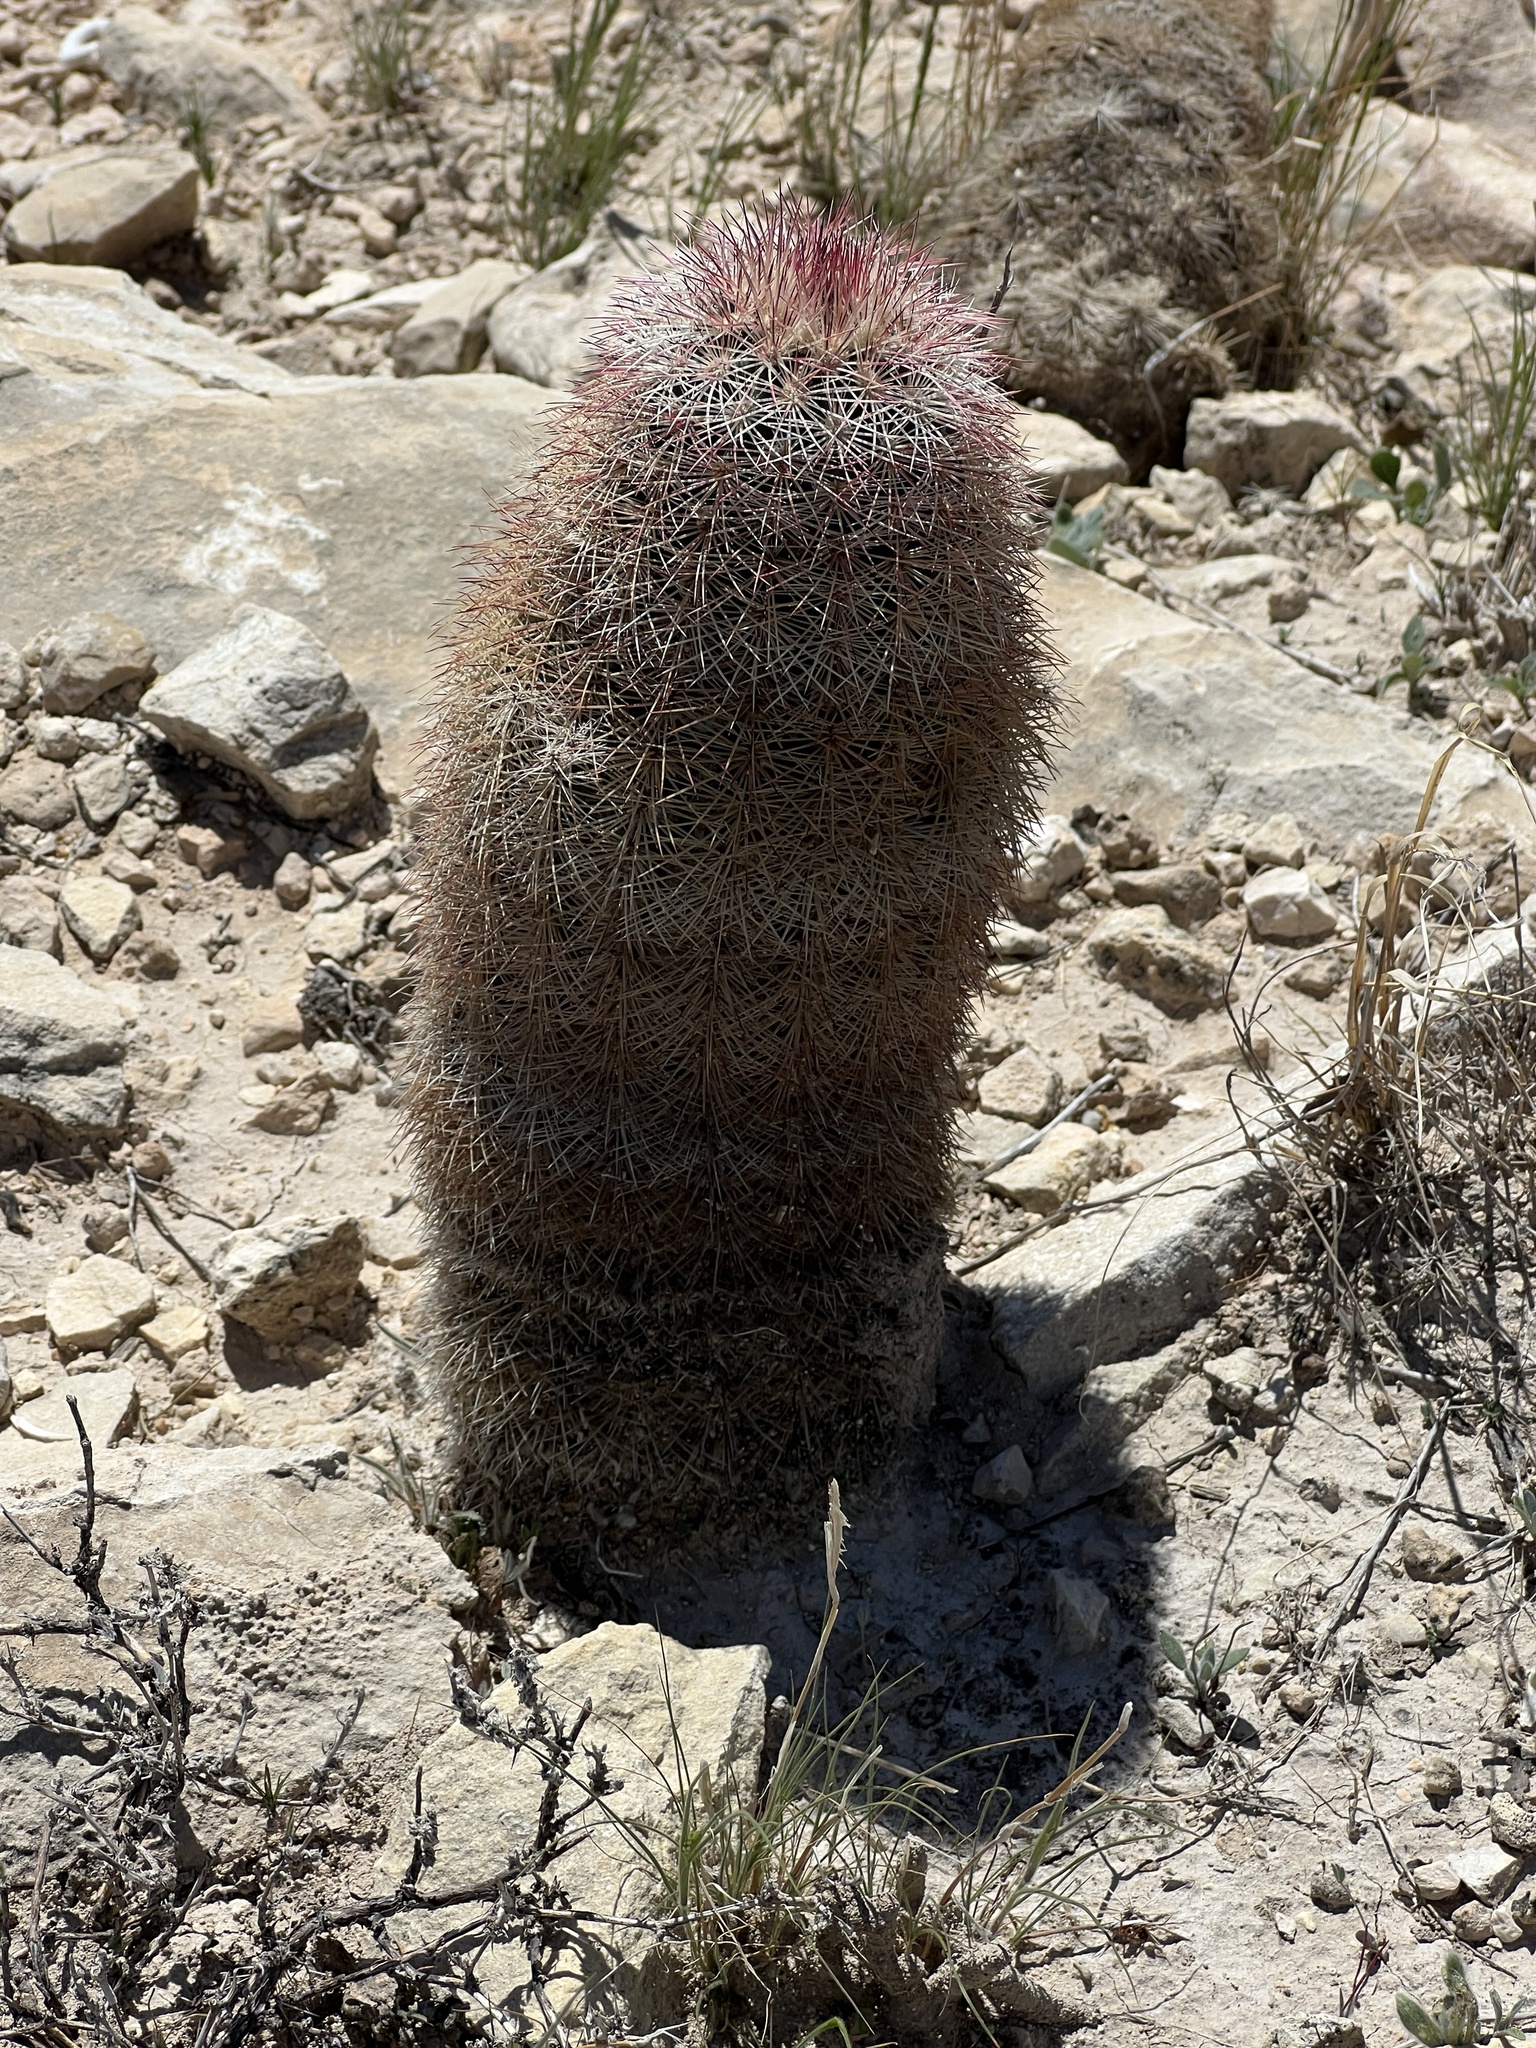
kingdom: Plantae
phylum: Tracheophyta
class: Magnoliopsida
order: Caryophyllales
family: Cactaceae
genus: Echinocereus
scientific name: Echinocereus dasyacanthus
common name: Spiny hedgehog cactus
